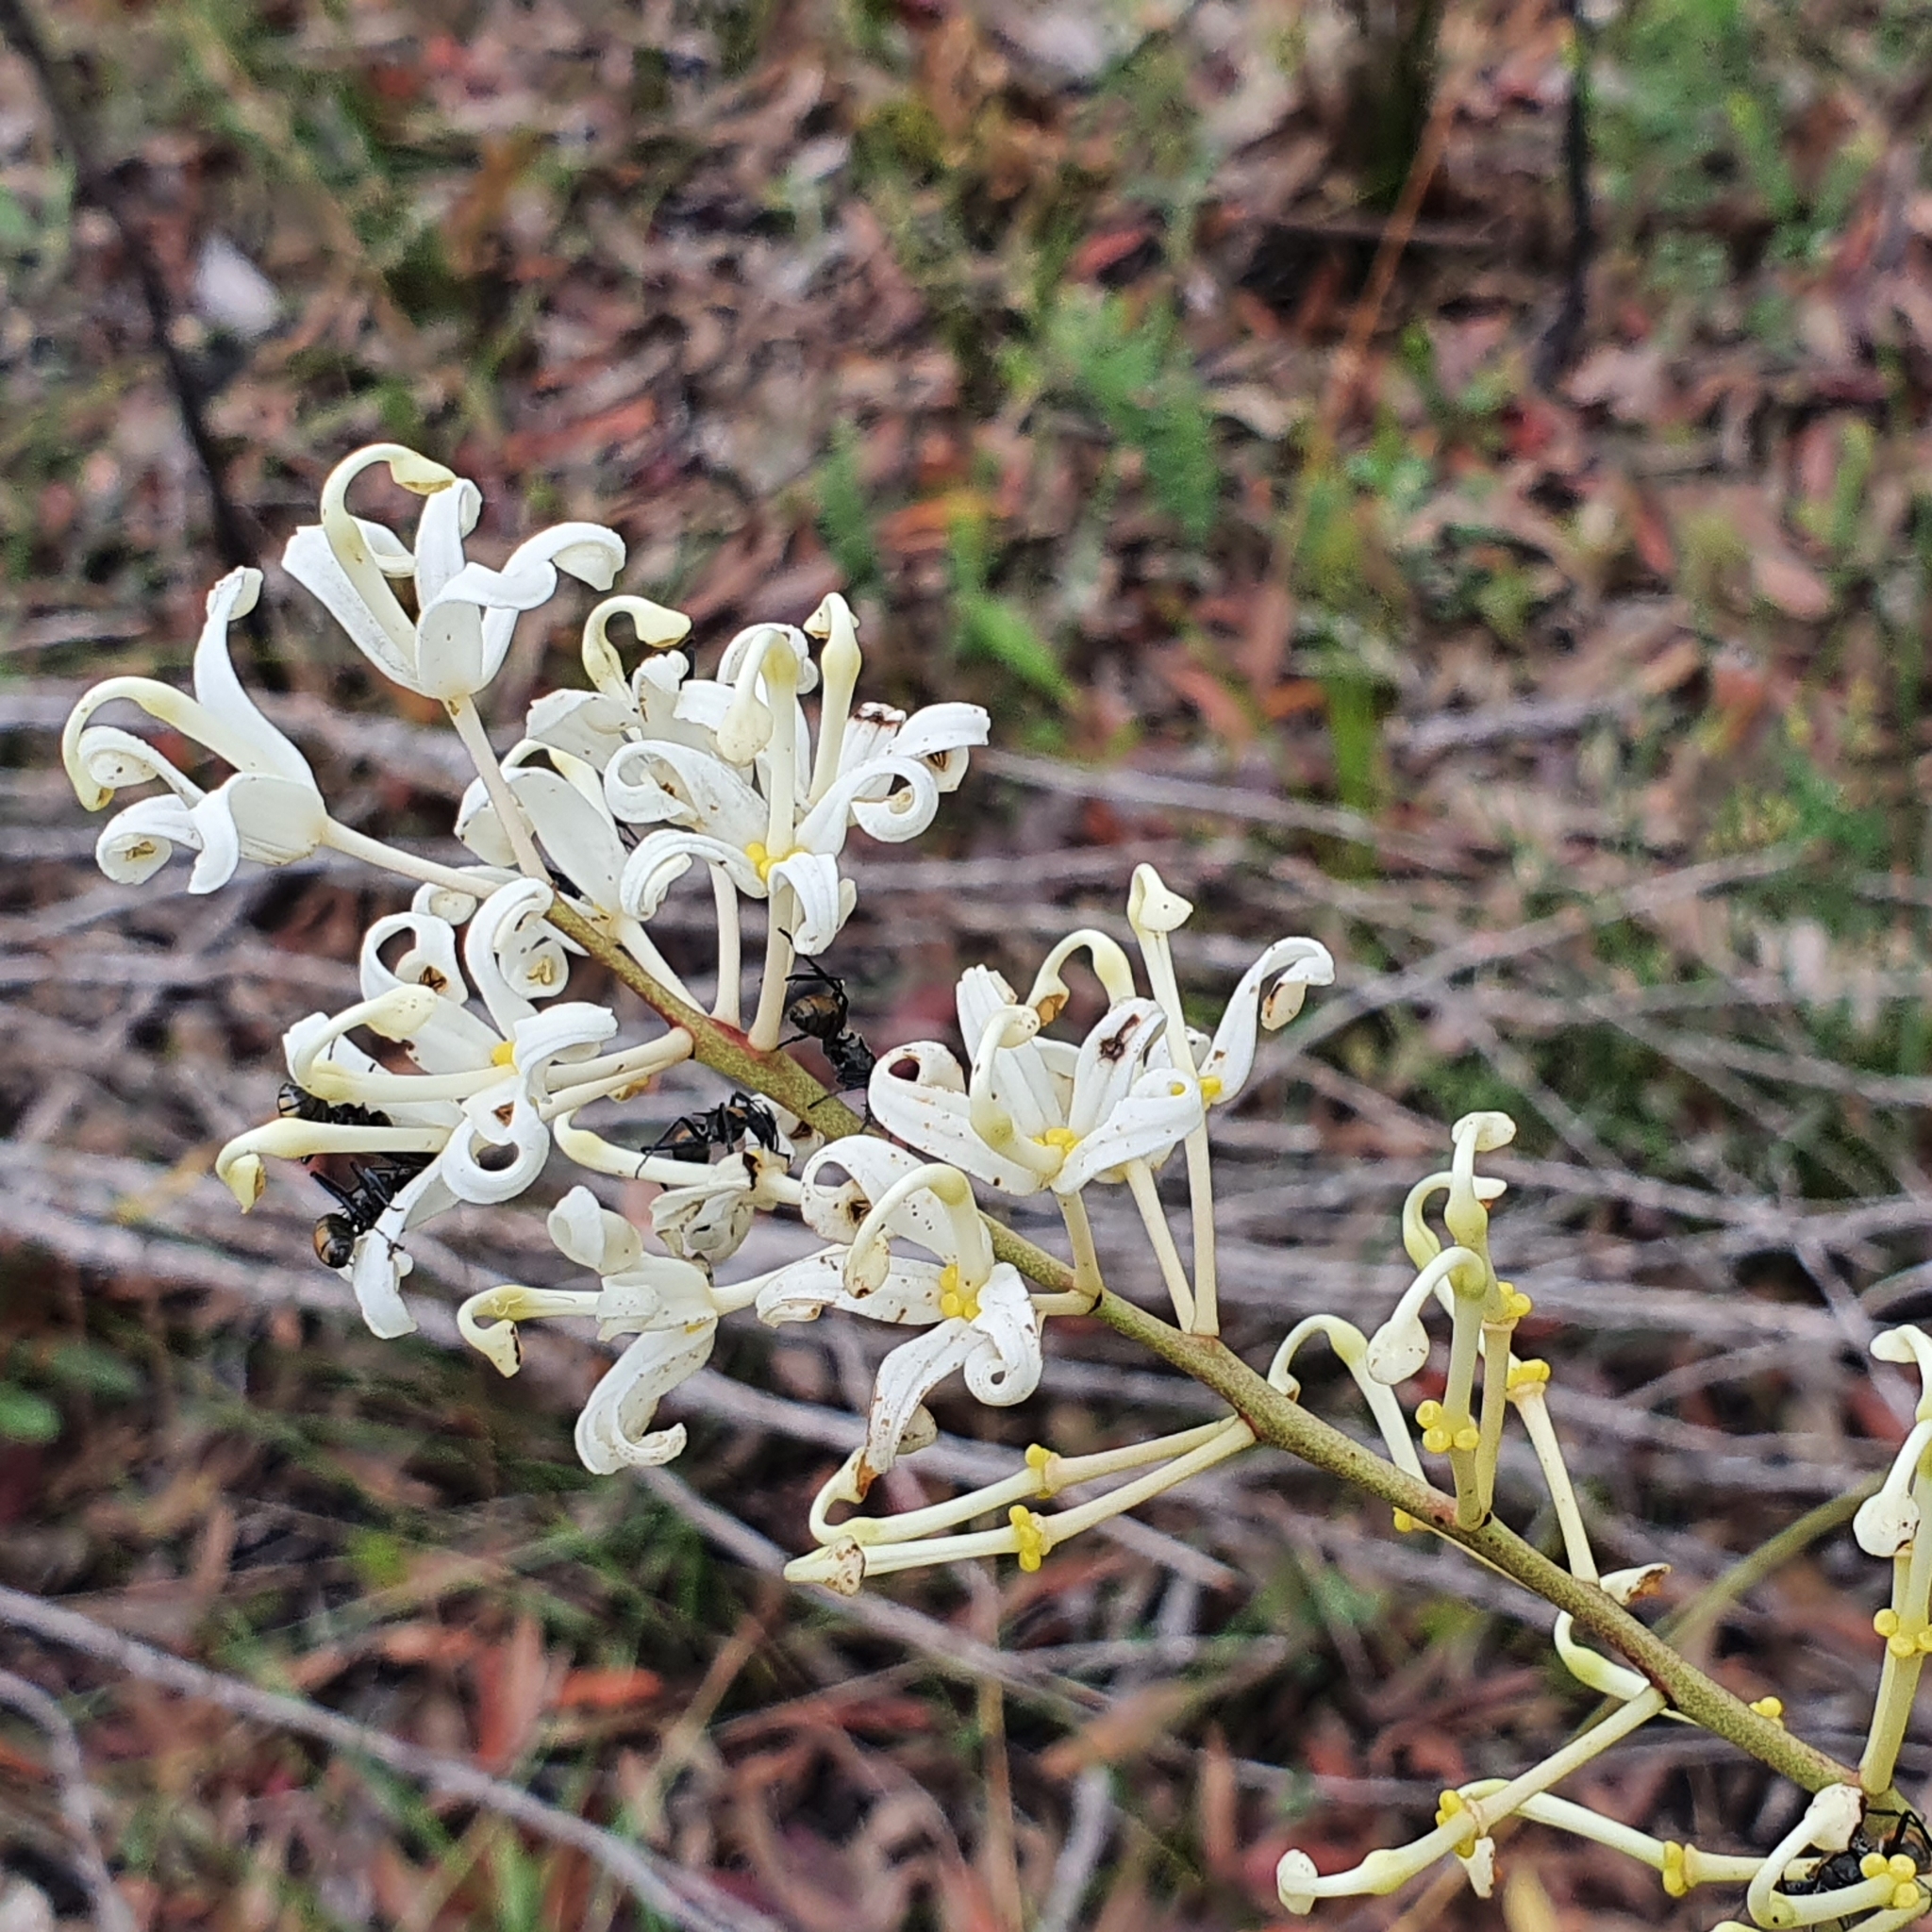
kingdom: Plantae
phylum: Tracheophyta
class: Magnoliopsida
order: Proteales
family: Proteaceae
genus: Lomatia
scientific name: Lomatia silaifolia
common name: Crinklebush
